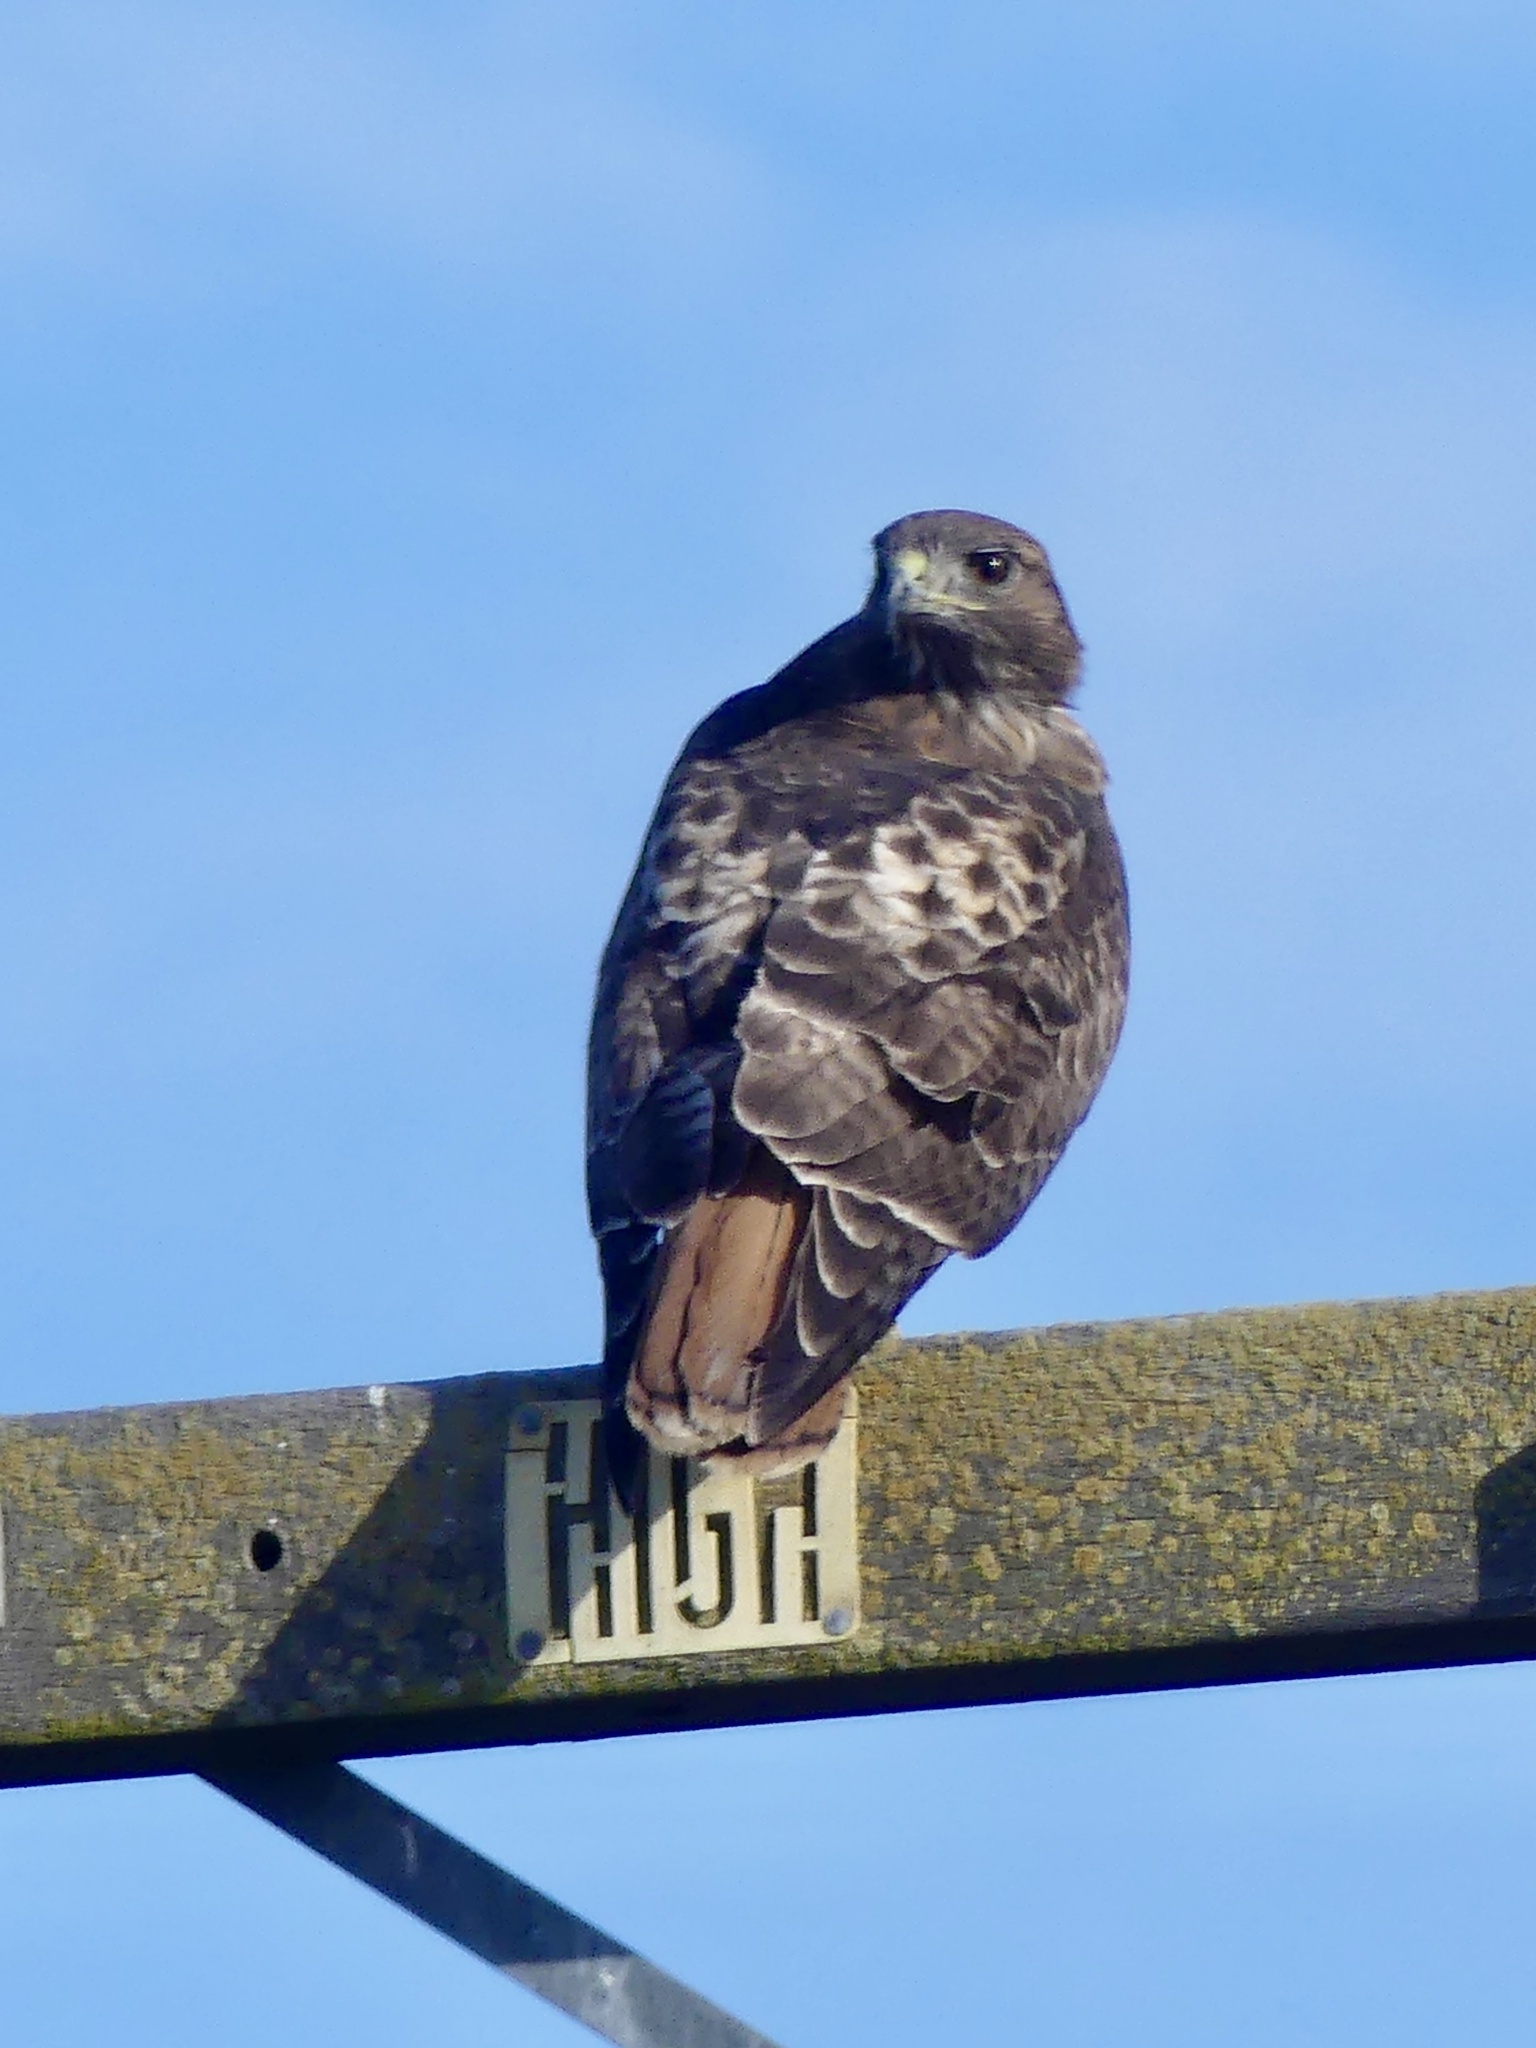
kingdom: Animalia
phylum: Chordata
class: Aves
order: Accipitriformes
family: Accipitridae
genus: Buteo
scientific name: Buteo jamaicensis
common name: Red-tailed hawk
